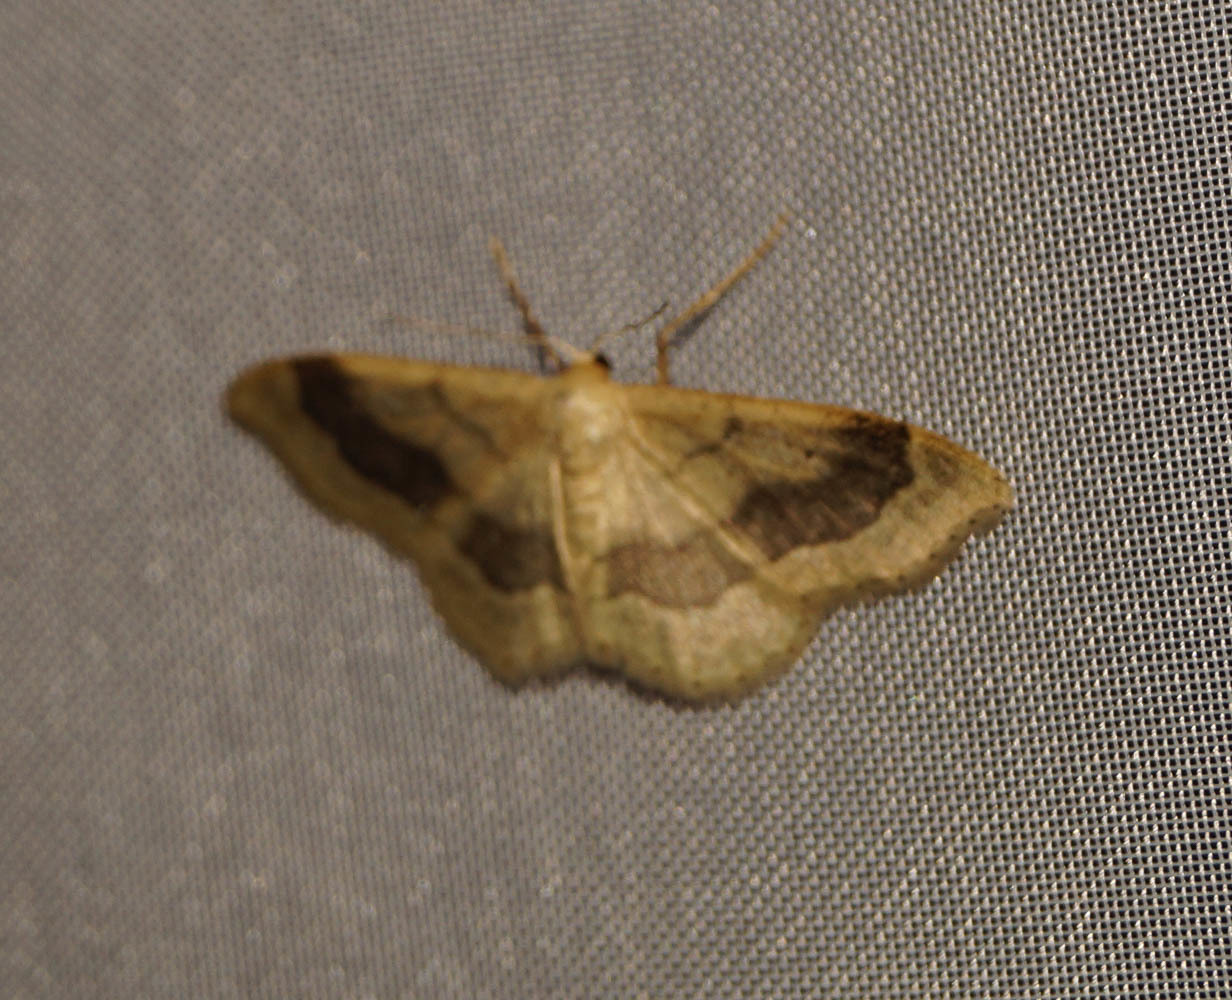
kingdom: Animalia
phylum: Arthropoda
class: Insecta
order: Lepidoptera
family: Geometridae
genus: Idaea
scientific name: Idaea aversata
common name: Riband wave
